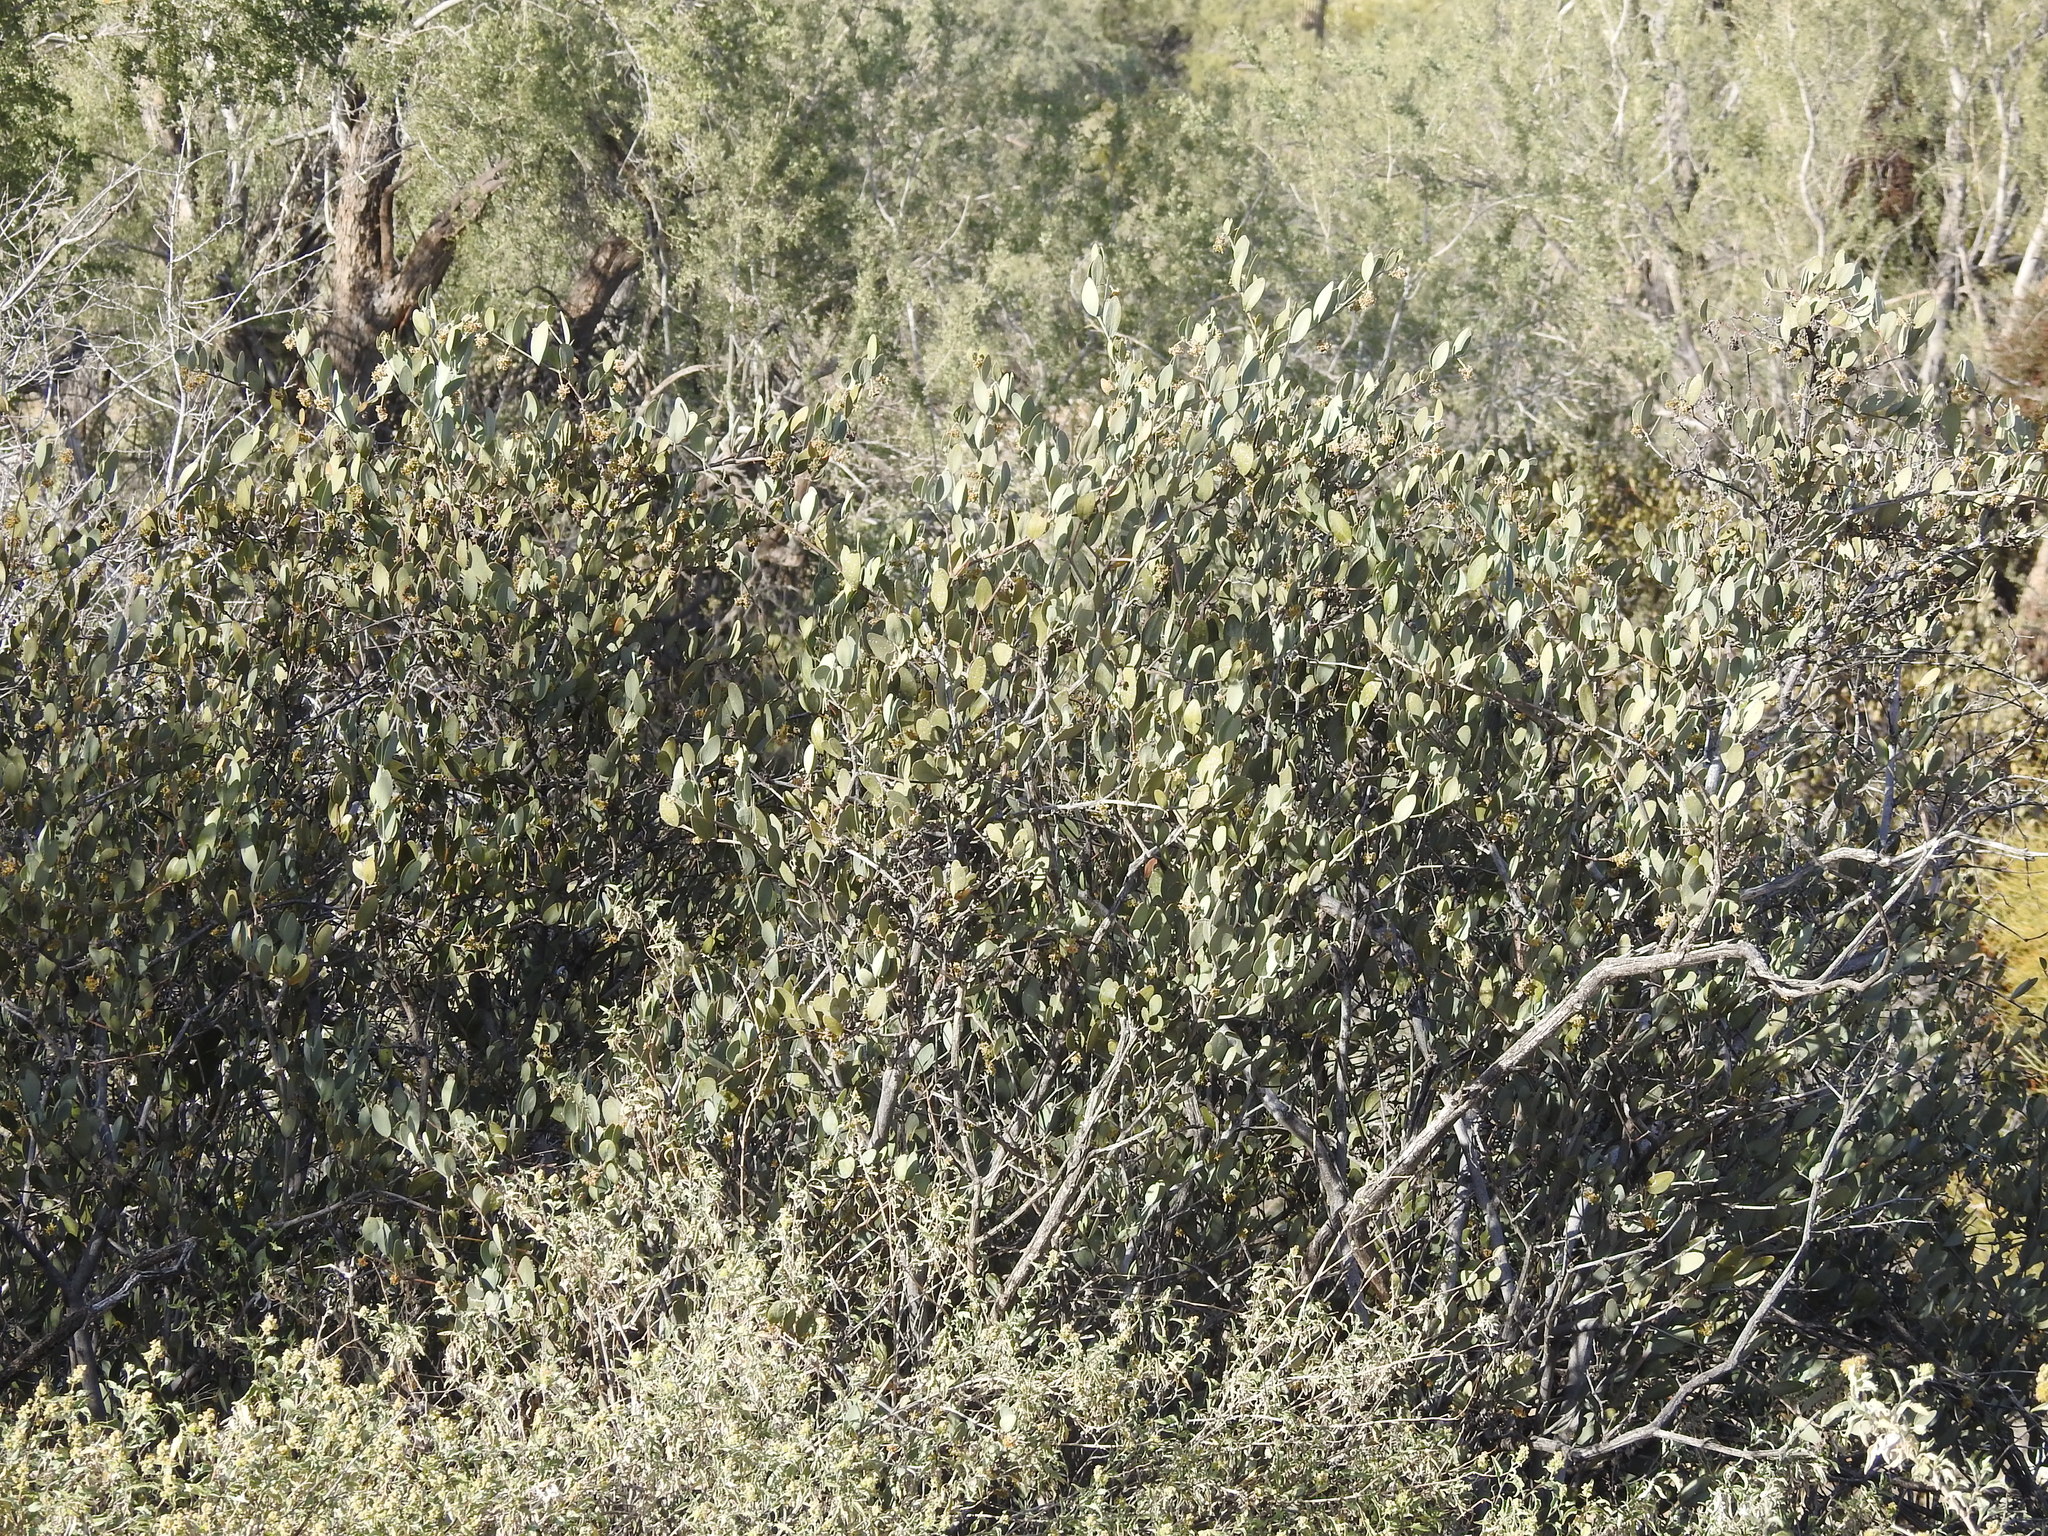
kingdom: Plantae
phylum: Tracheophyta
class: Magnoliopsida
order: Caryophyllales
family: Simmondsiaceae
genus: Simmondsia
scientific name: Simmondsia chinensis
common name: Jojoba
